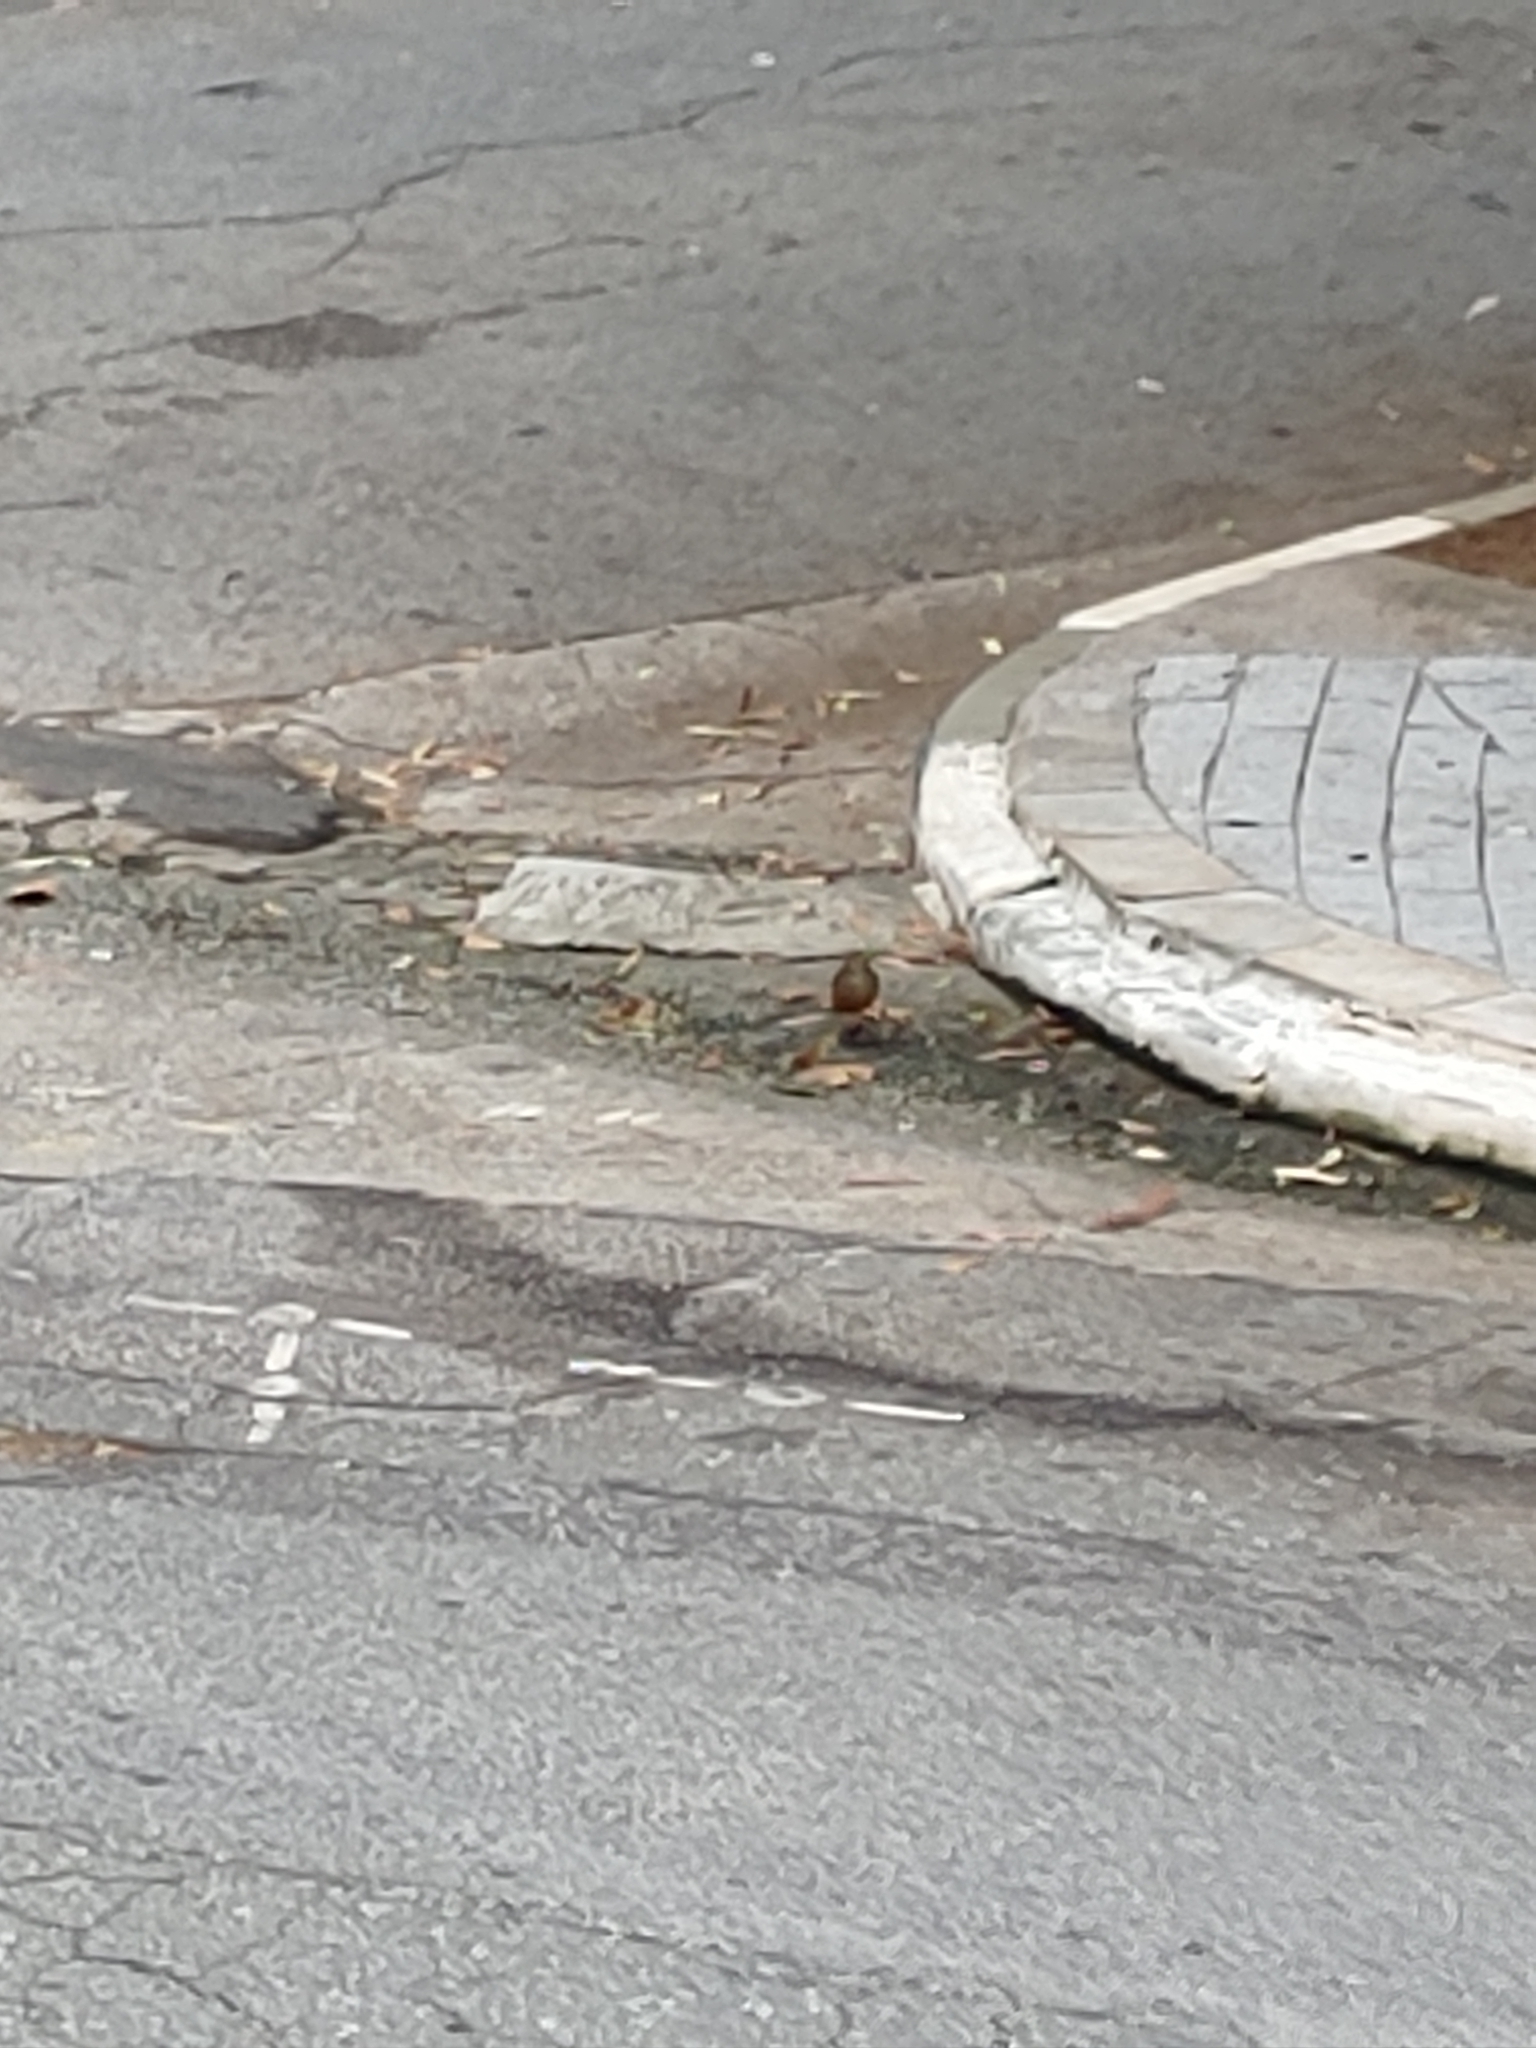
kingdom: Animalia
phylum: Chordata
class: Aves
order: Passeriformes
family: Turdidae
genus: Turdus
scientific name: Turdus rufiventris
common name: Rufous-bellied thrush
